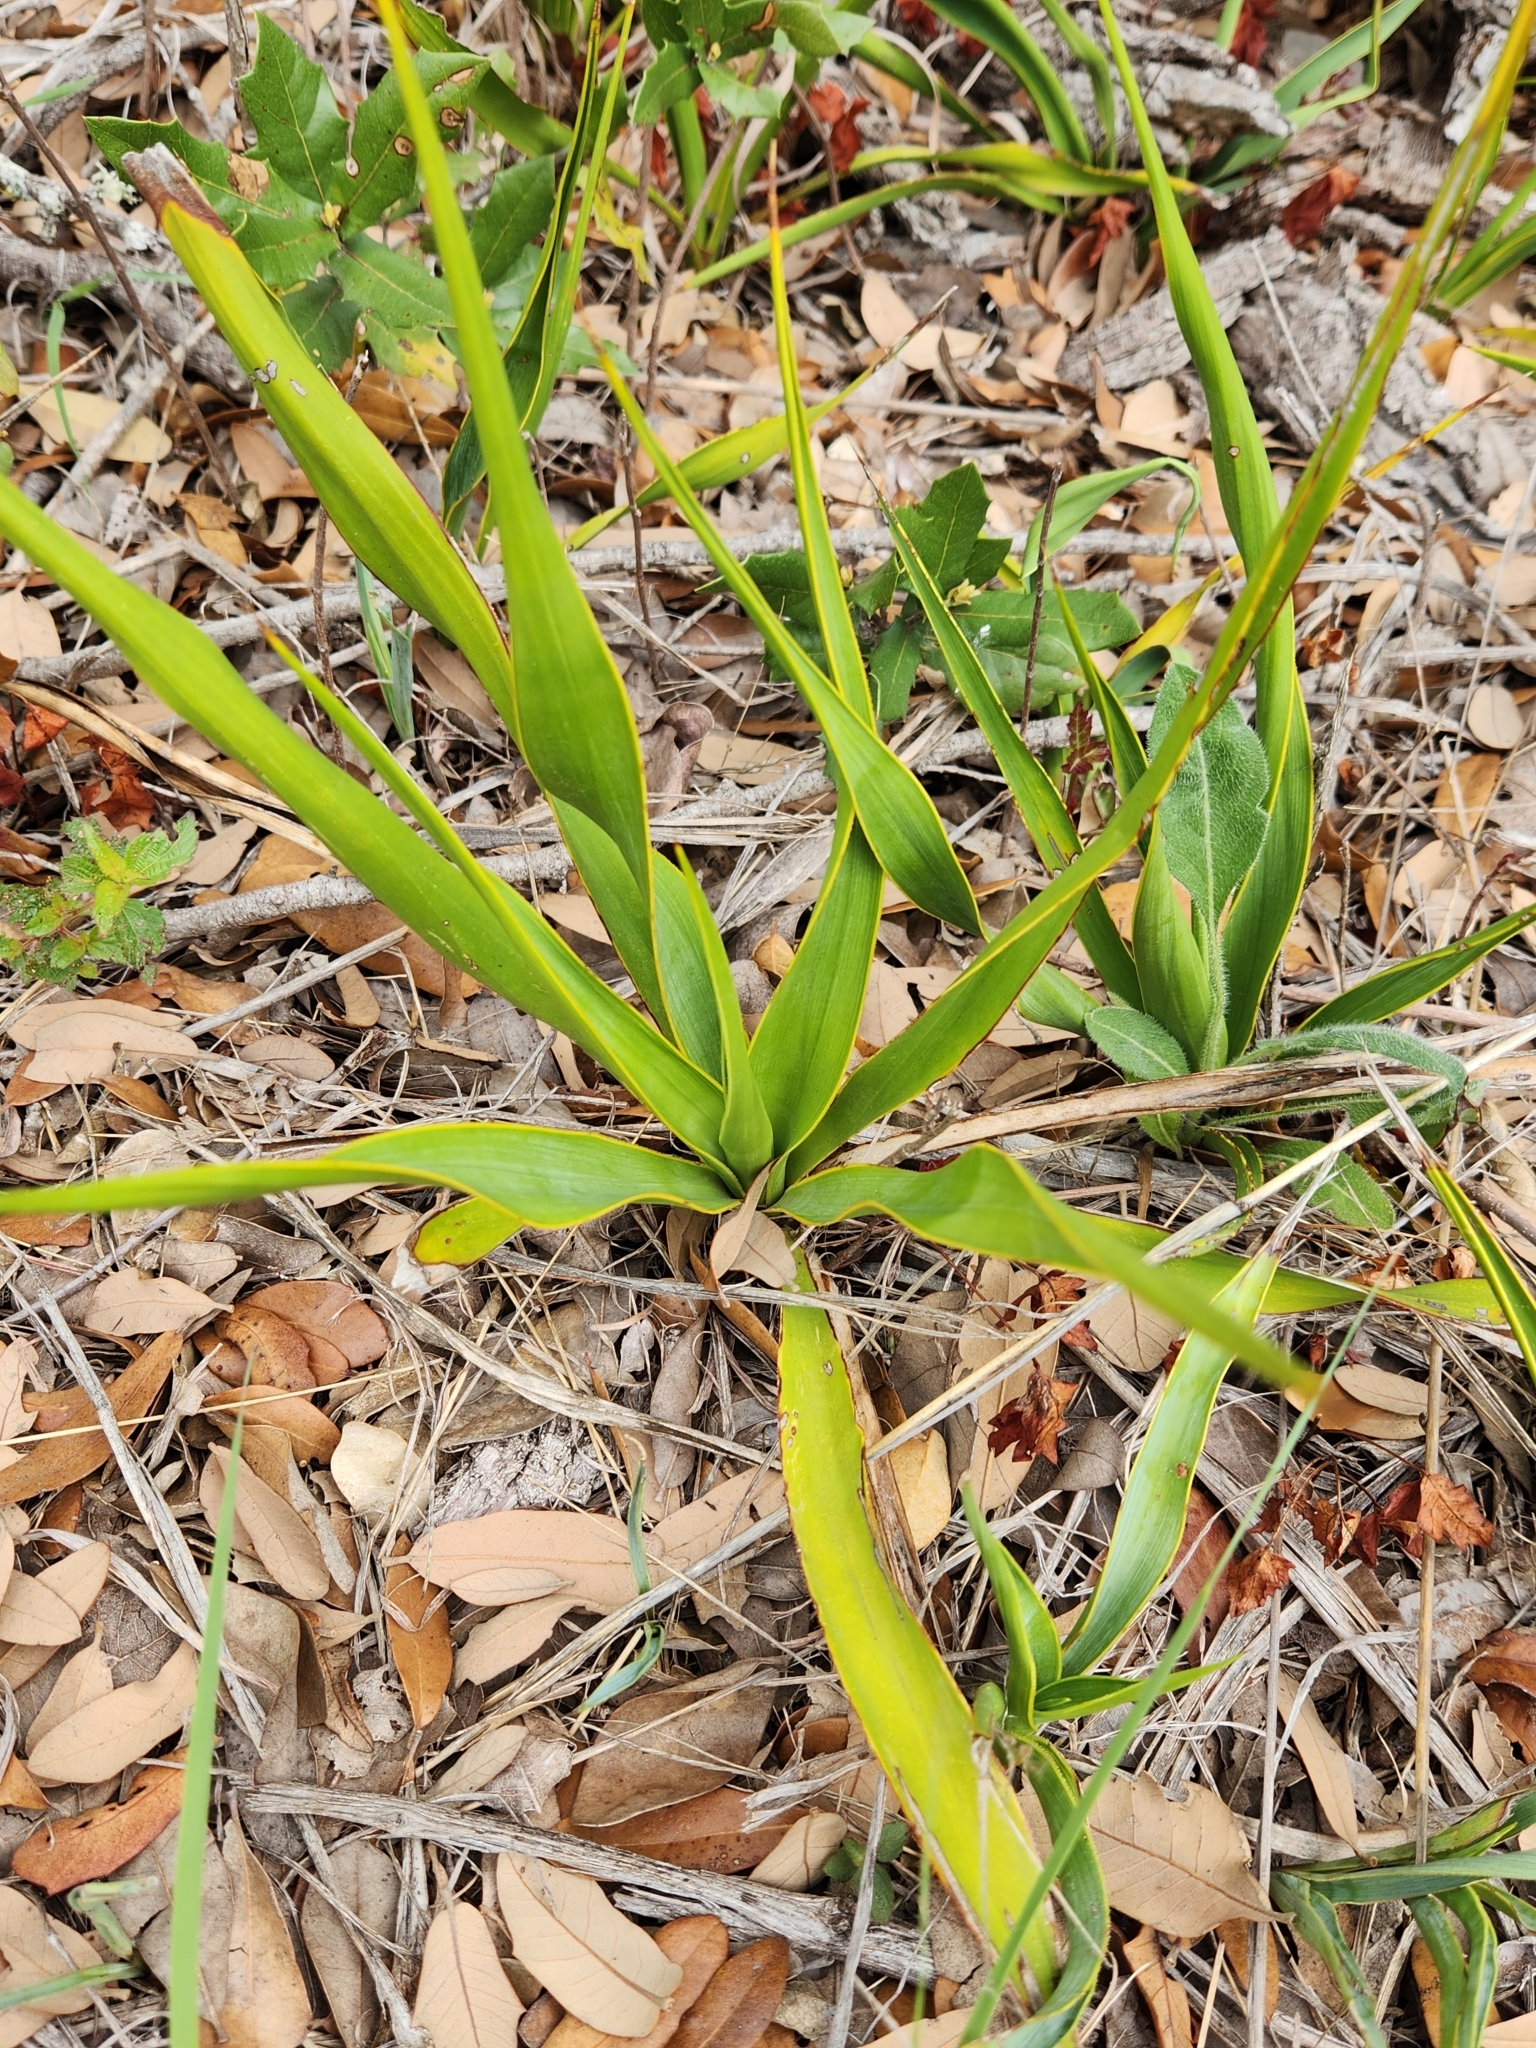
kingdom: Plantae
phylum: Tracheophyta
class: Liliopsida
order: Asparagales
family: Asparagaceae
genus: Yucca
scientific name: Yucca rupicola
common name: Twisted-leaf spanish-dagger
